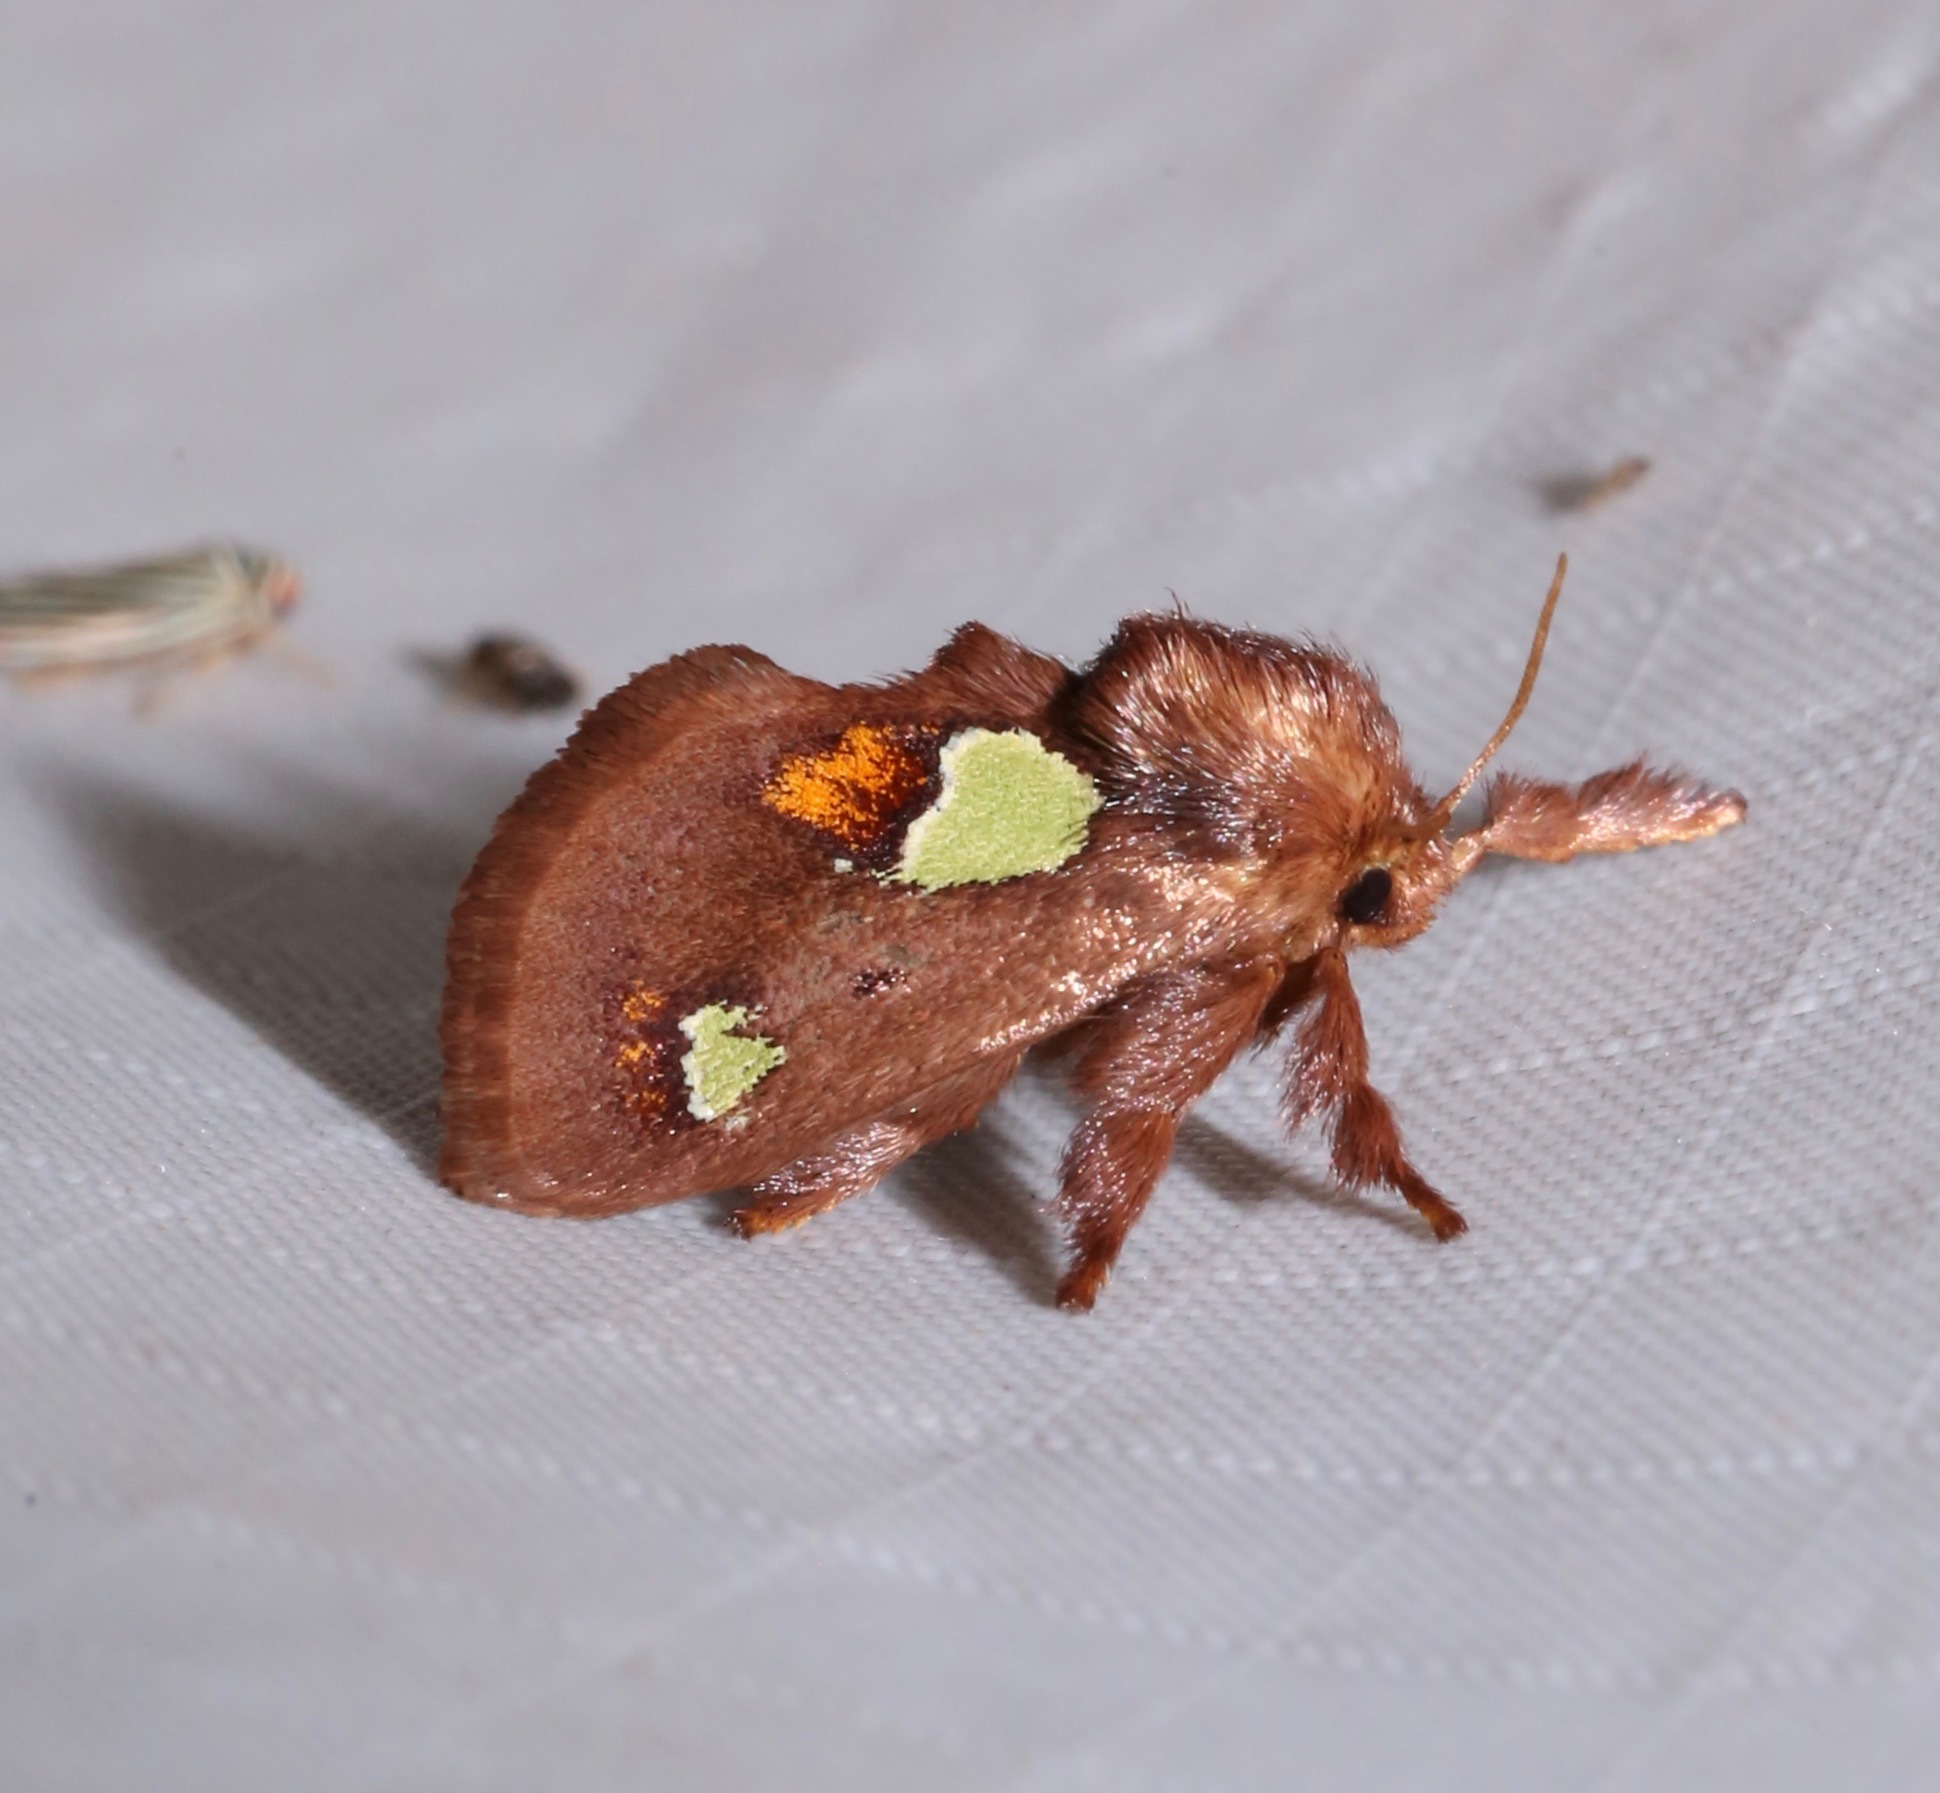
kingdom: Animalia
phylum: Arthropoda
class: Insecta
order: Lepidoptera
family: Limacodidae
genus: Euclea
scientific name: Euclea delphinii
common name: Spiny oak-slug moth
